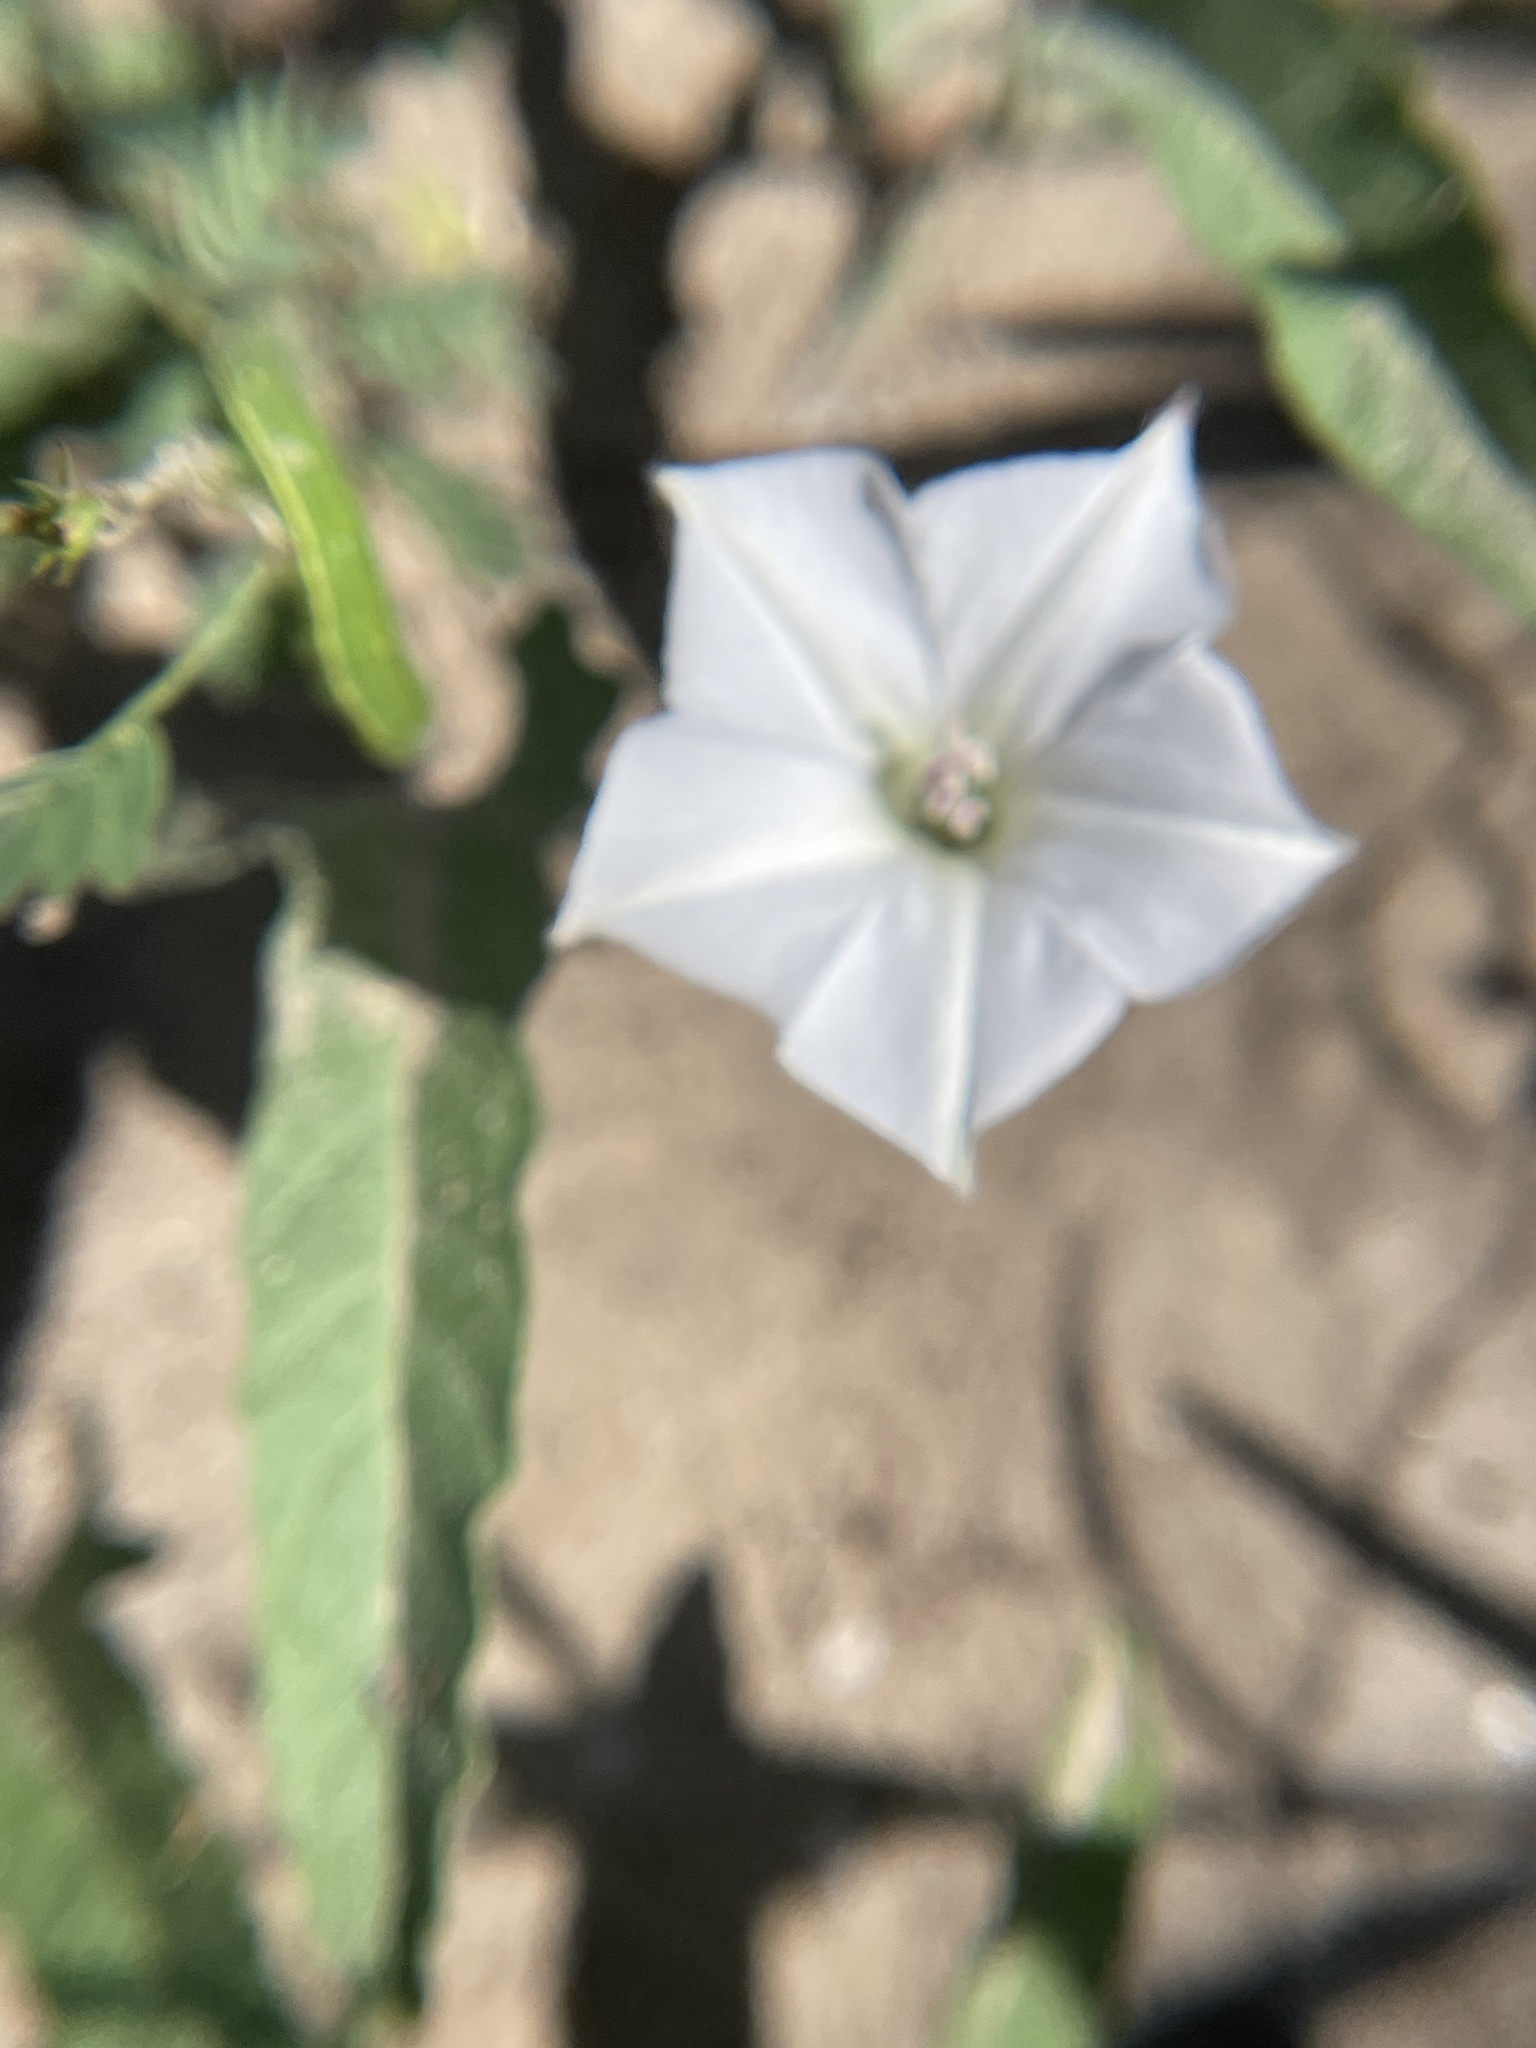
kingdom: Plantae
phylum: Tracheophyta
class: Magnoliopsida
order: Solanales
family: Convolvulaceae
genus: Convolvulus
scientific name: Convolvulus equitans
